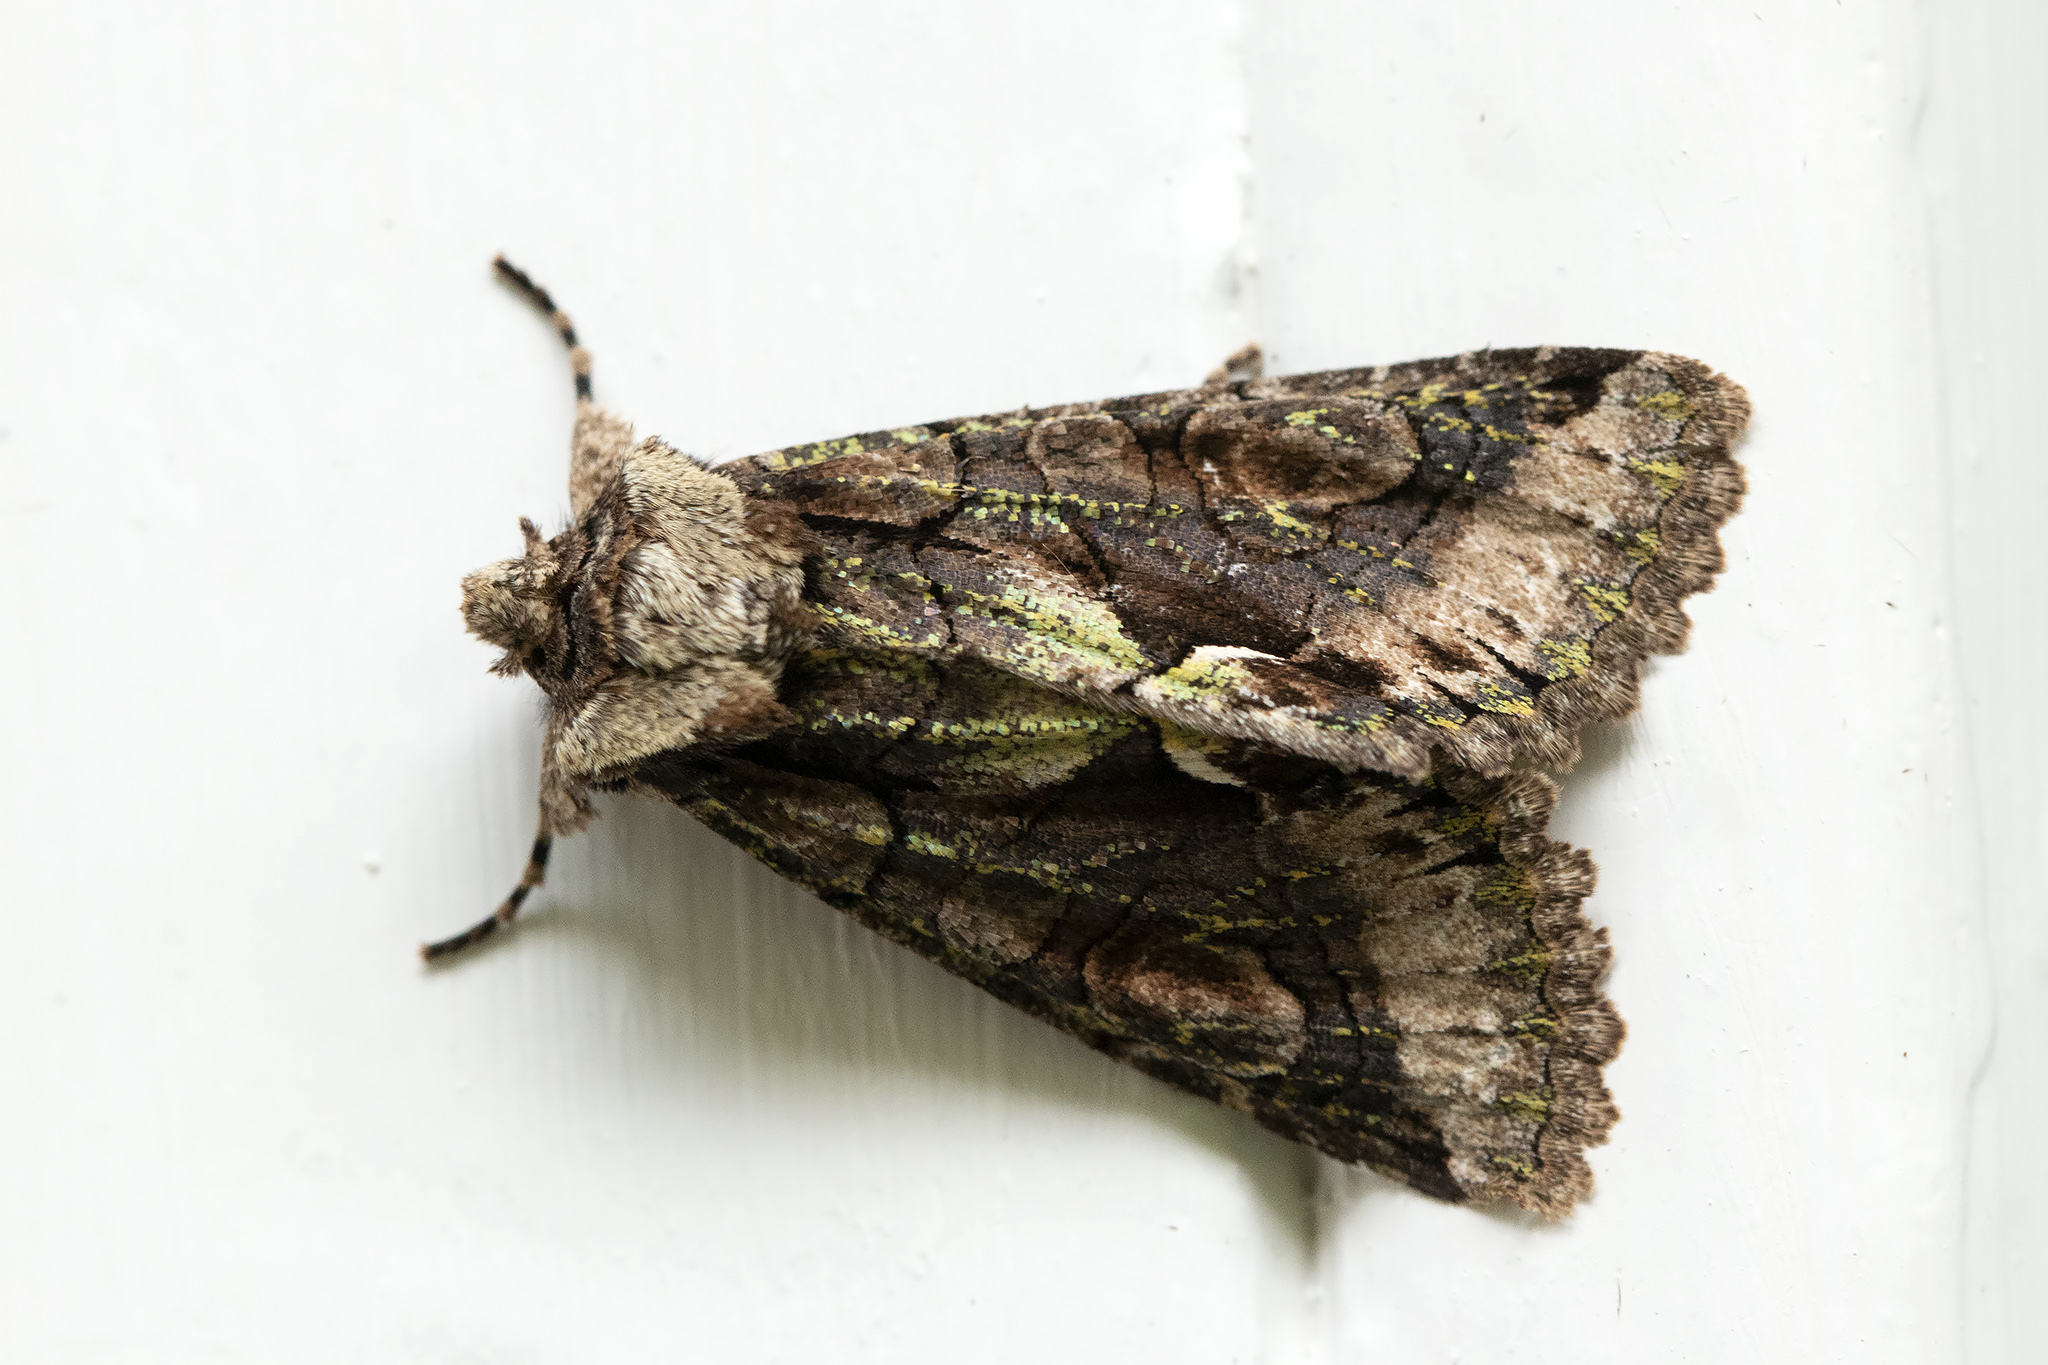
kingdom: Animalia
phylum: Arthropoda
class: Insecta
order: Lepidoptera
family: Noctuidae
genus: Allophyes
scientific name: Allophyes oxyacanthae
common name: Green-brindled crescent
